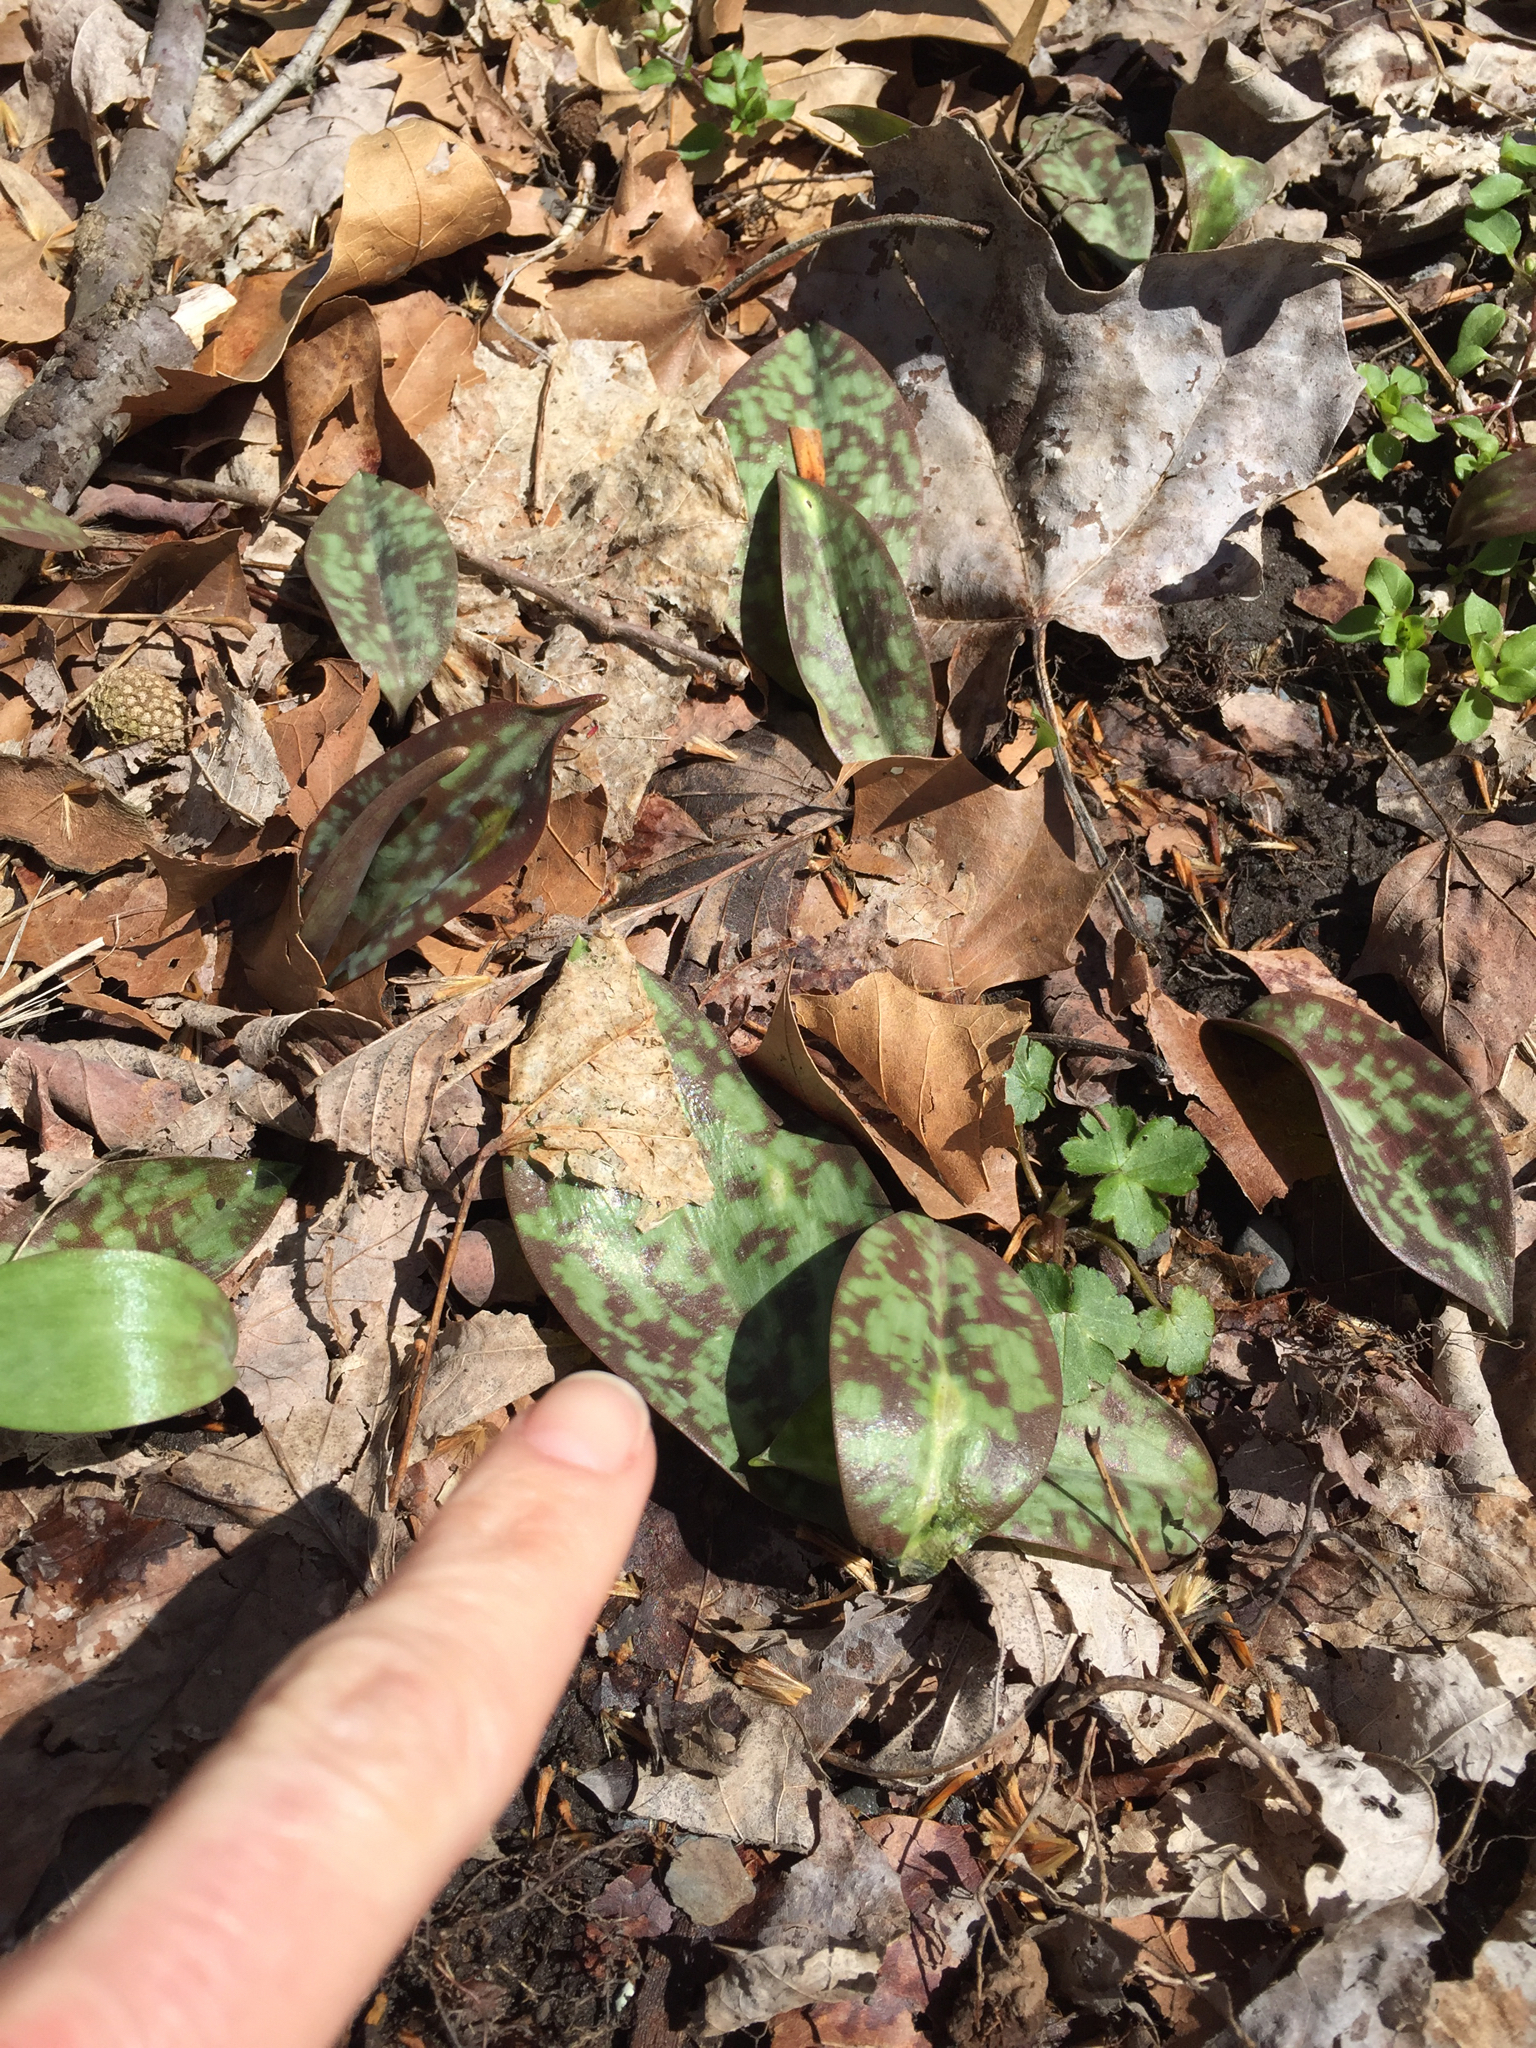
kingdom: Plantae
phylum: Tracheophyta
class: Liliopsida
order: Liliales
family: Liliaceae
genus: Erythronium
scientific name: Erythronium americanum
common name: Yellow adder's-tongue
